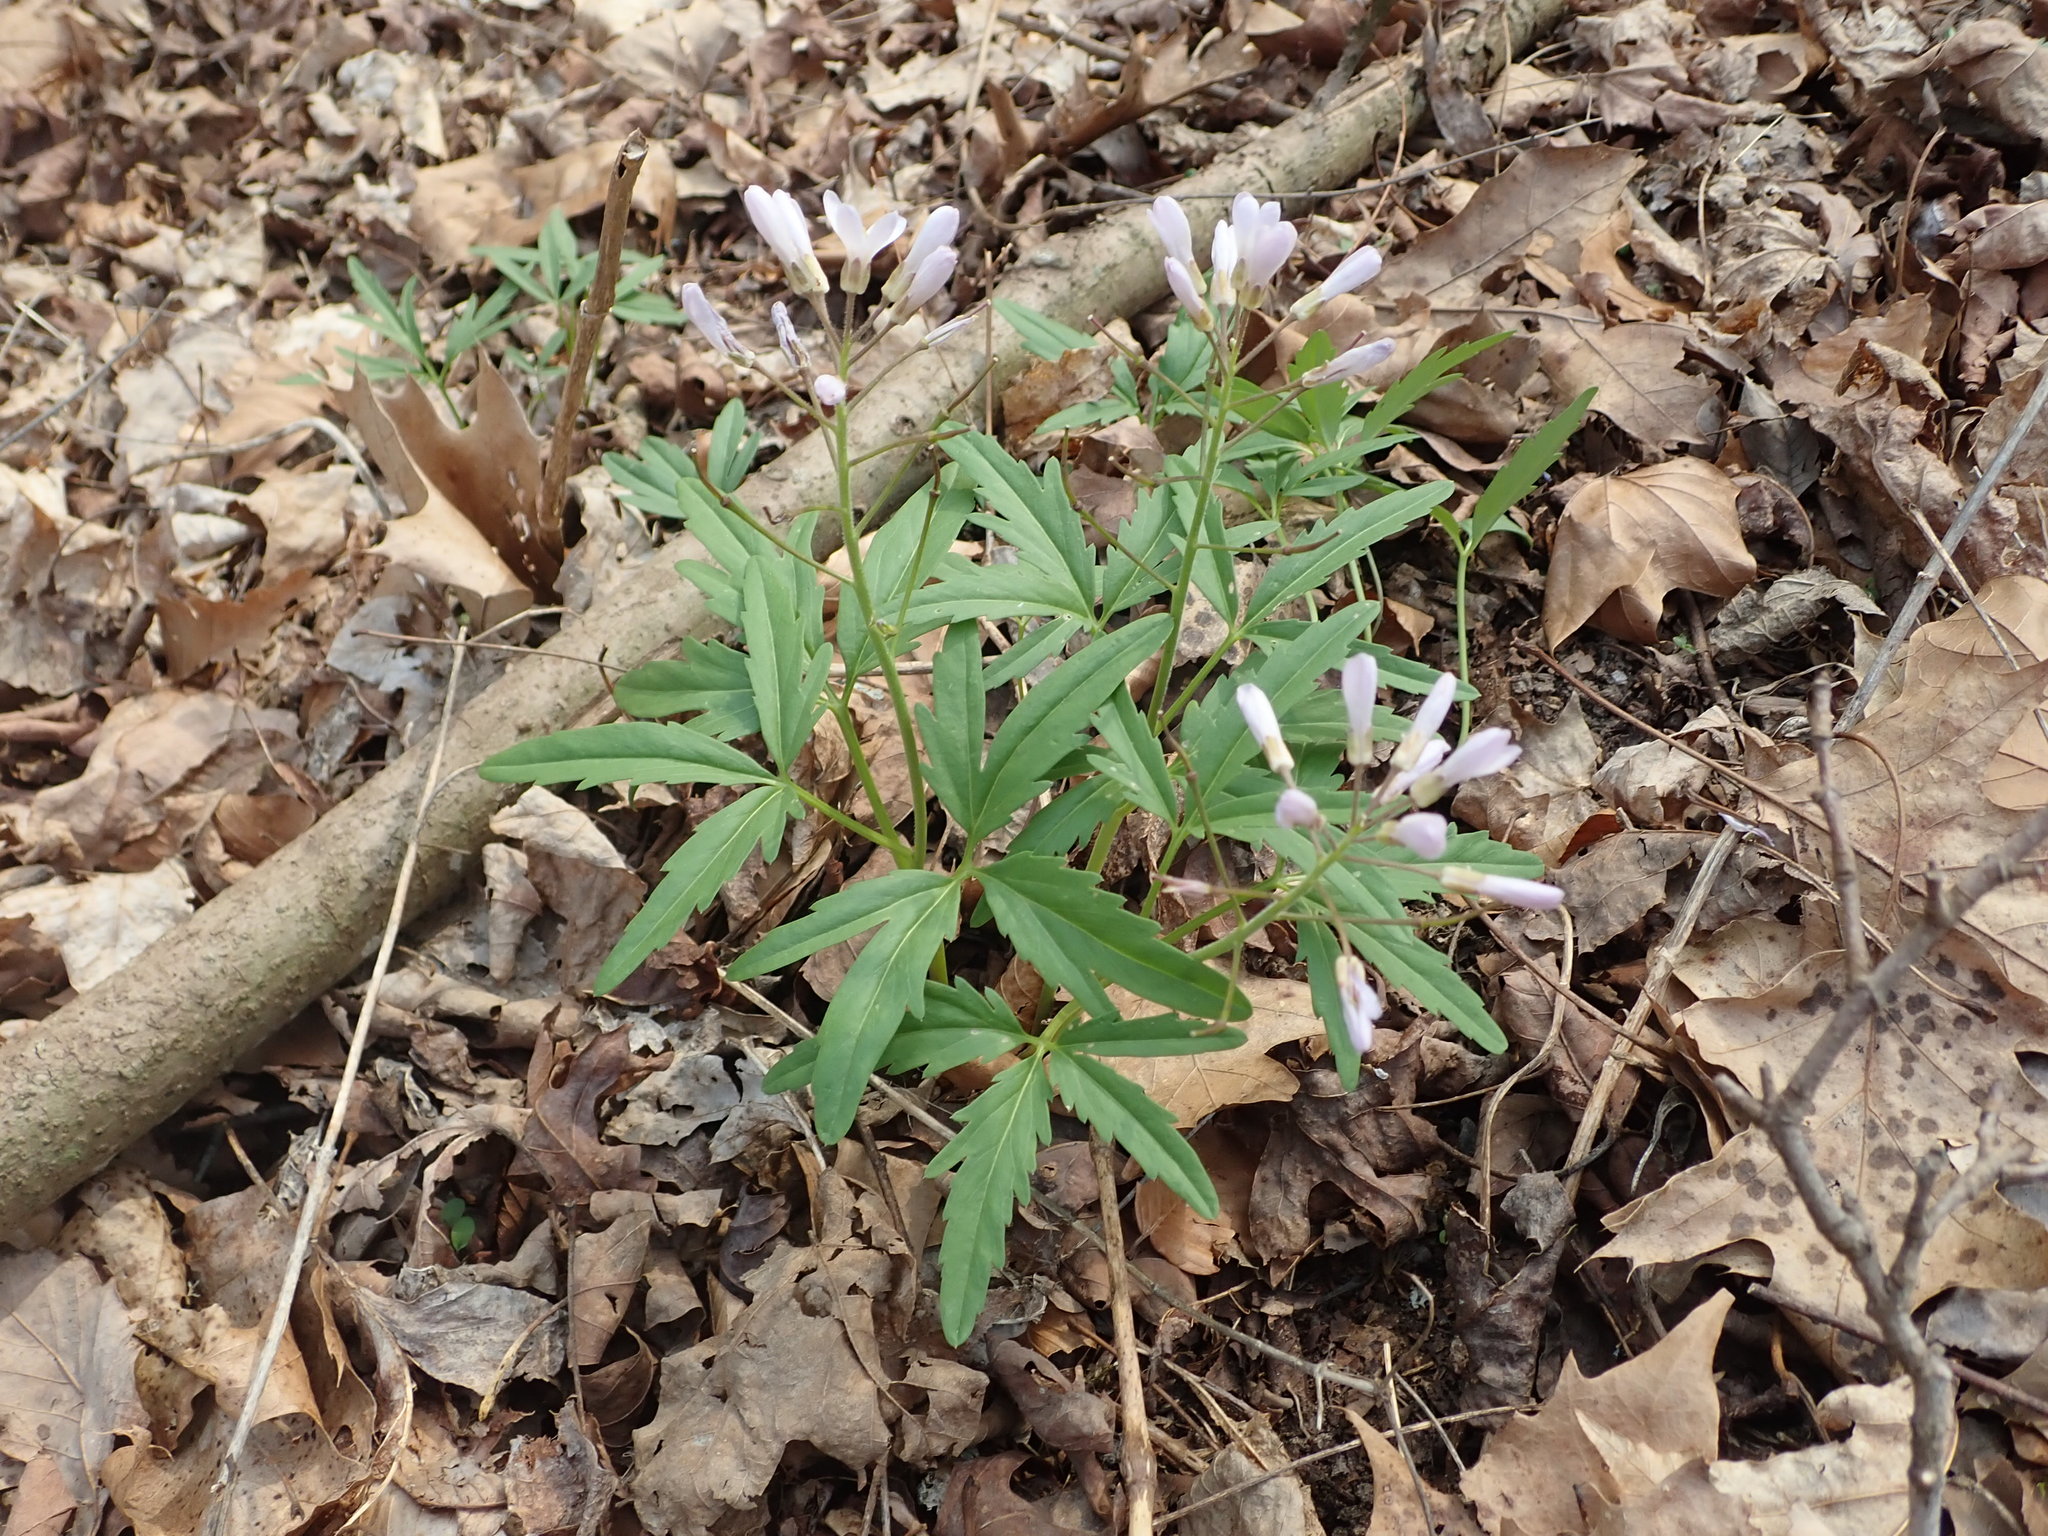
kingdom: Plantae
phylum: Tracheophyta
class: Magnoliopsida
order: Brassicales
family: Brassicaceae
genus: Cardamine
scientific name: Cardamine concatenata
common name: Cut-leaf toothcup
